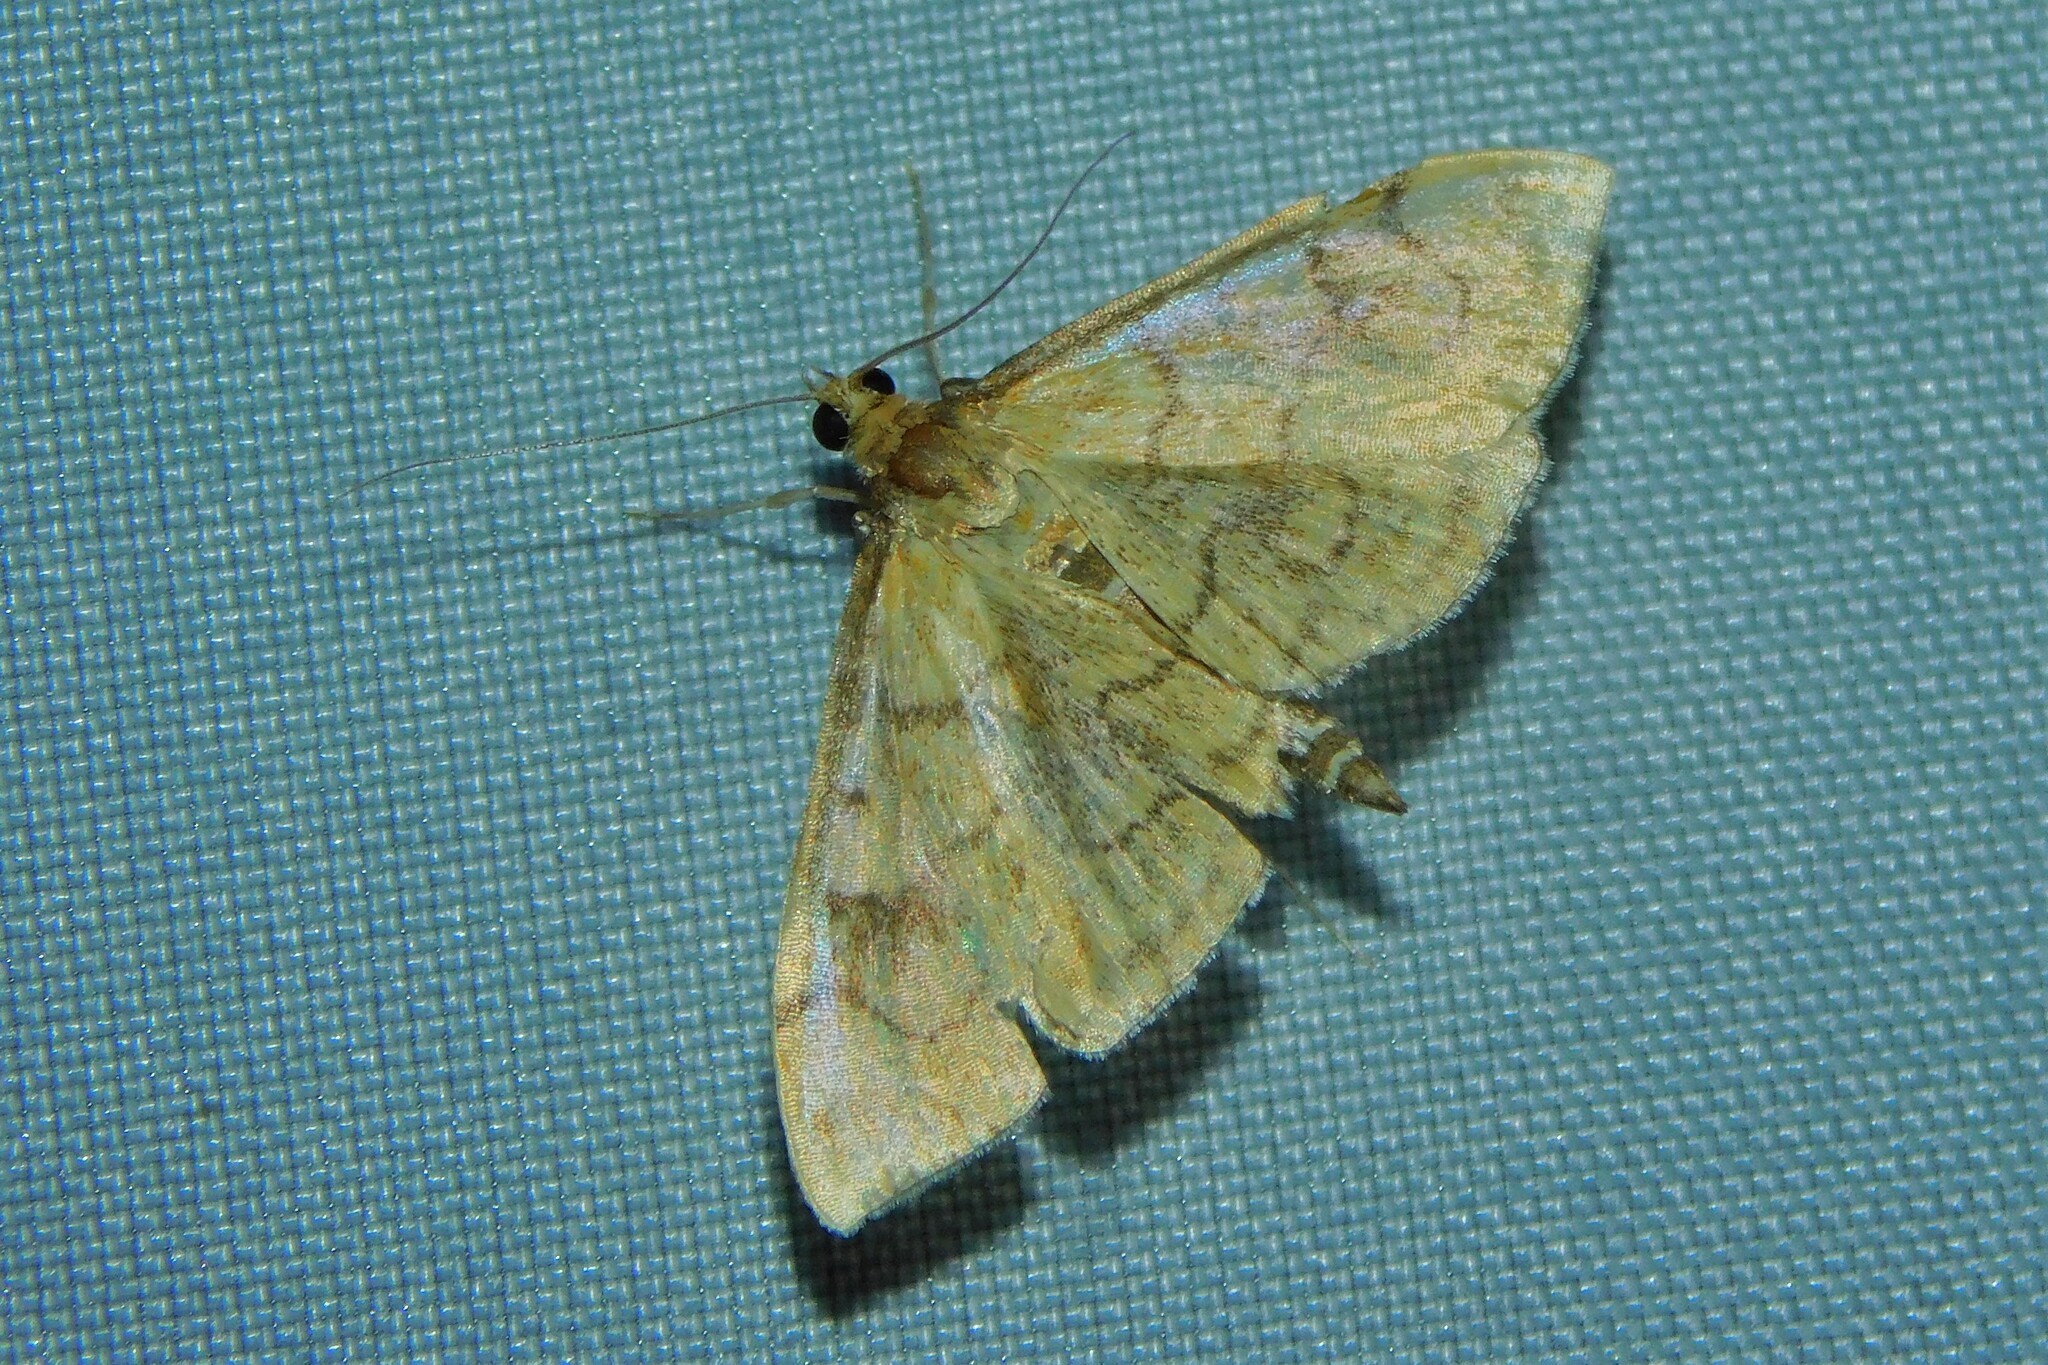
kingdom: Animalia
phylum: Arthropoda
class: Insecta
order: Lepidoptera
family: Crambidae
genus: Anania
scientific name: Anania verbascalis
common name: Golden pearl
